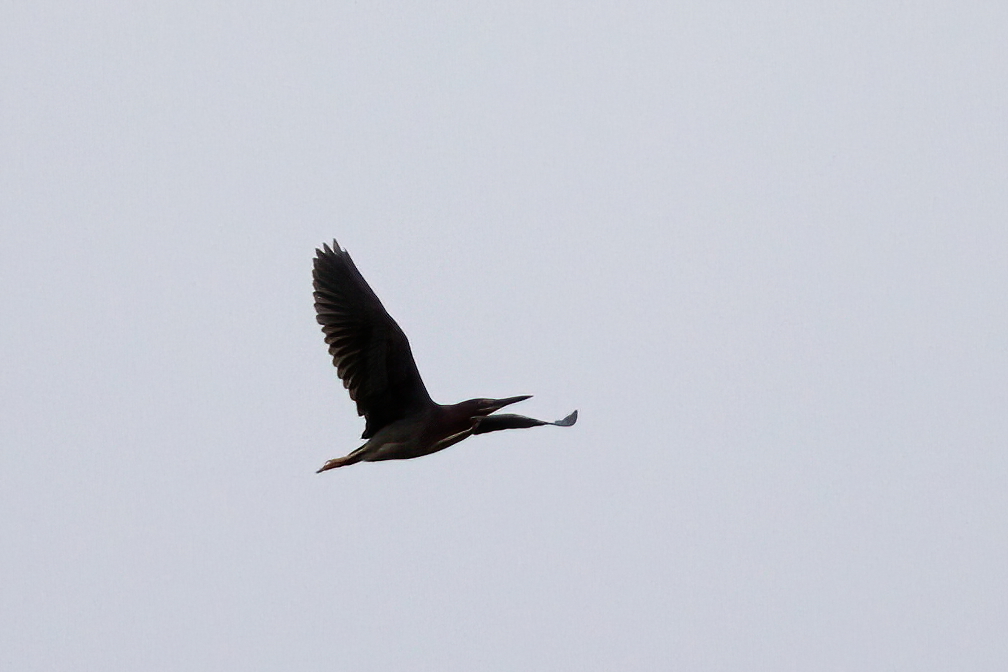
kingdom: Animalia
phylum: Chordata
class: Aves
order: Pelecaniformes
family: Ardeidae
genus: Butorides
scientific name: Butorides virescens
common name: Green heron
